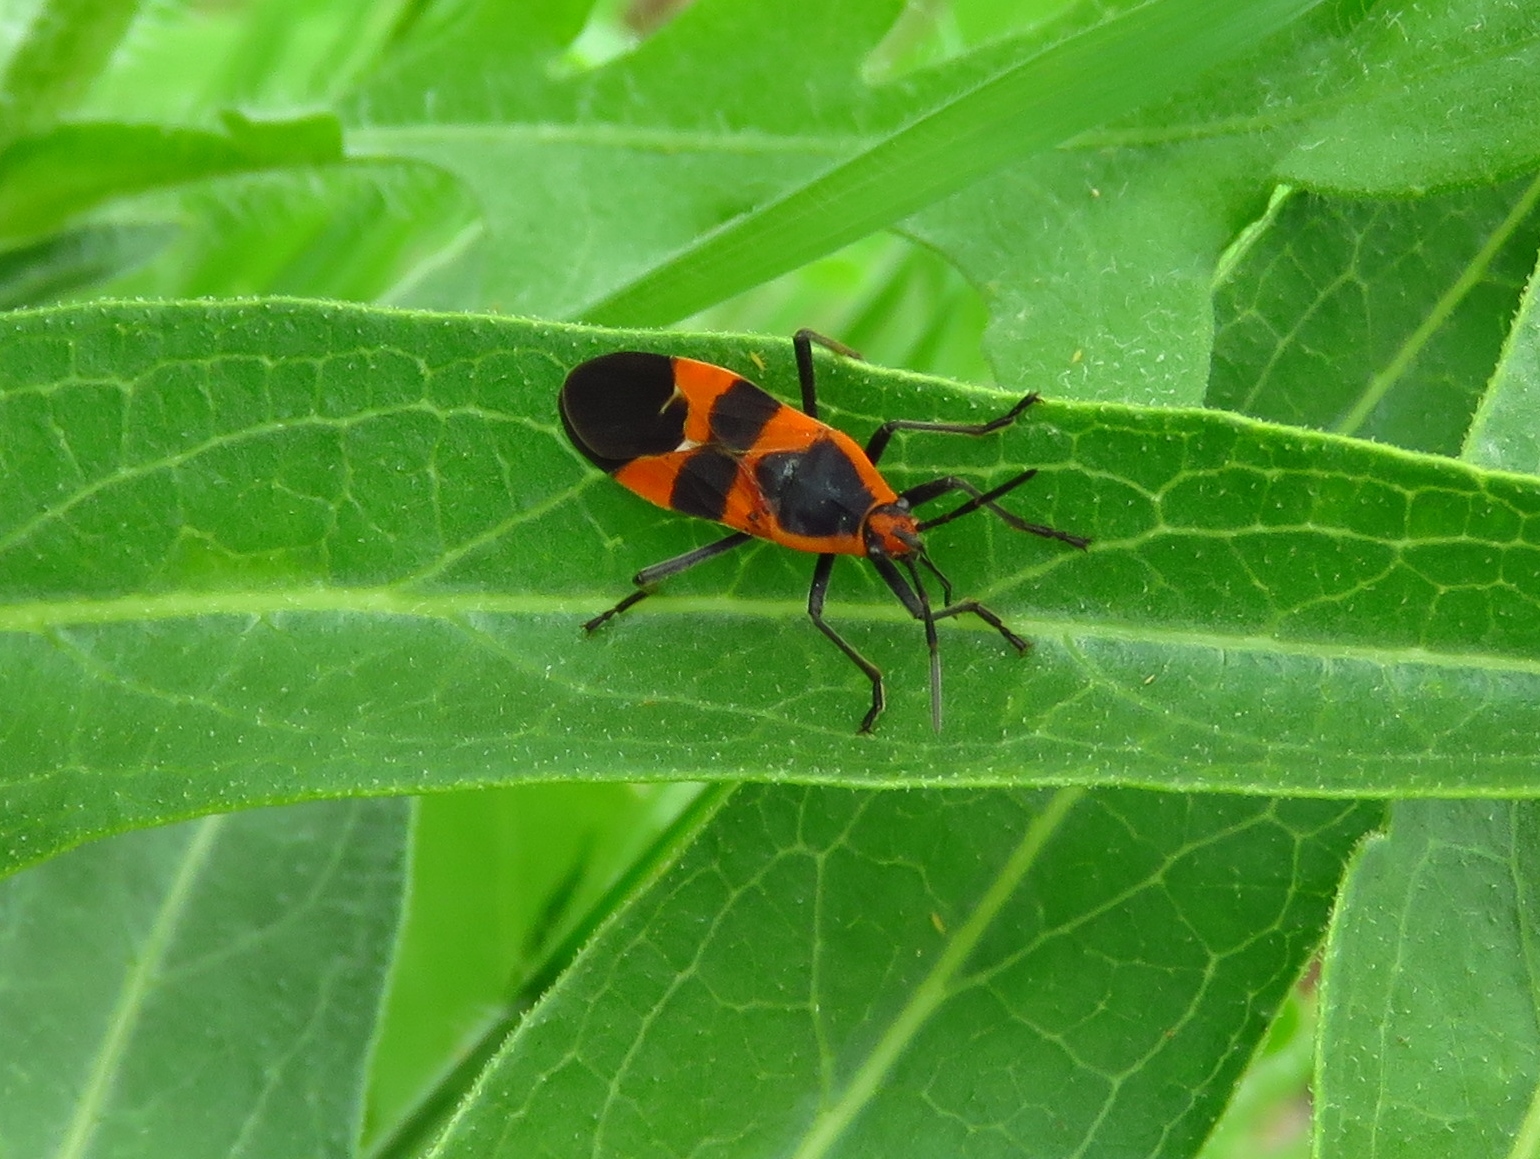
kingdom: Animalia
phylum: Arthropoda
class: Insecta
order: Hemiptera
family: Lygaeidae
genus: Oncopeltus
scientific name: Oncopeltus fasciatus
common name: Large milkweed bug
